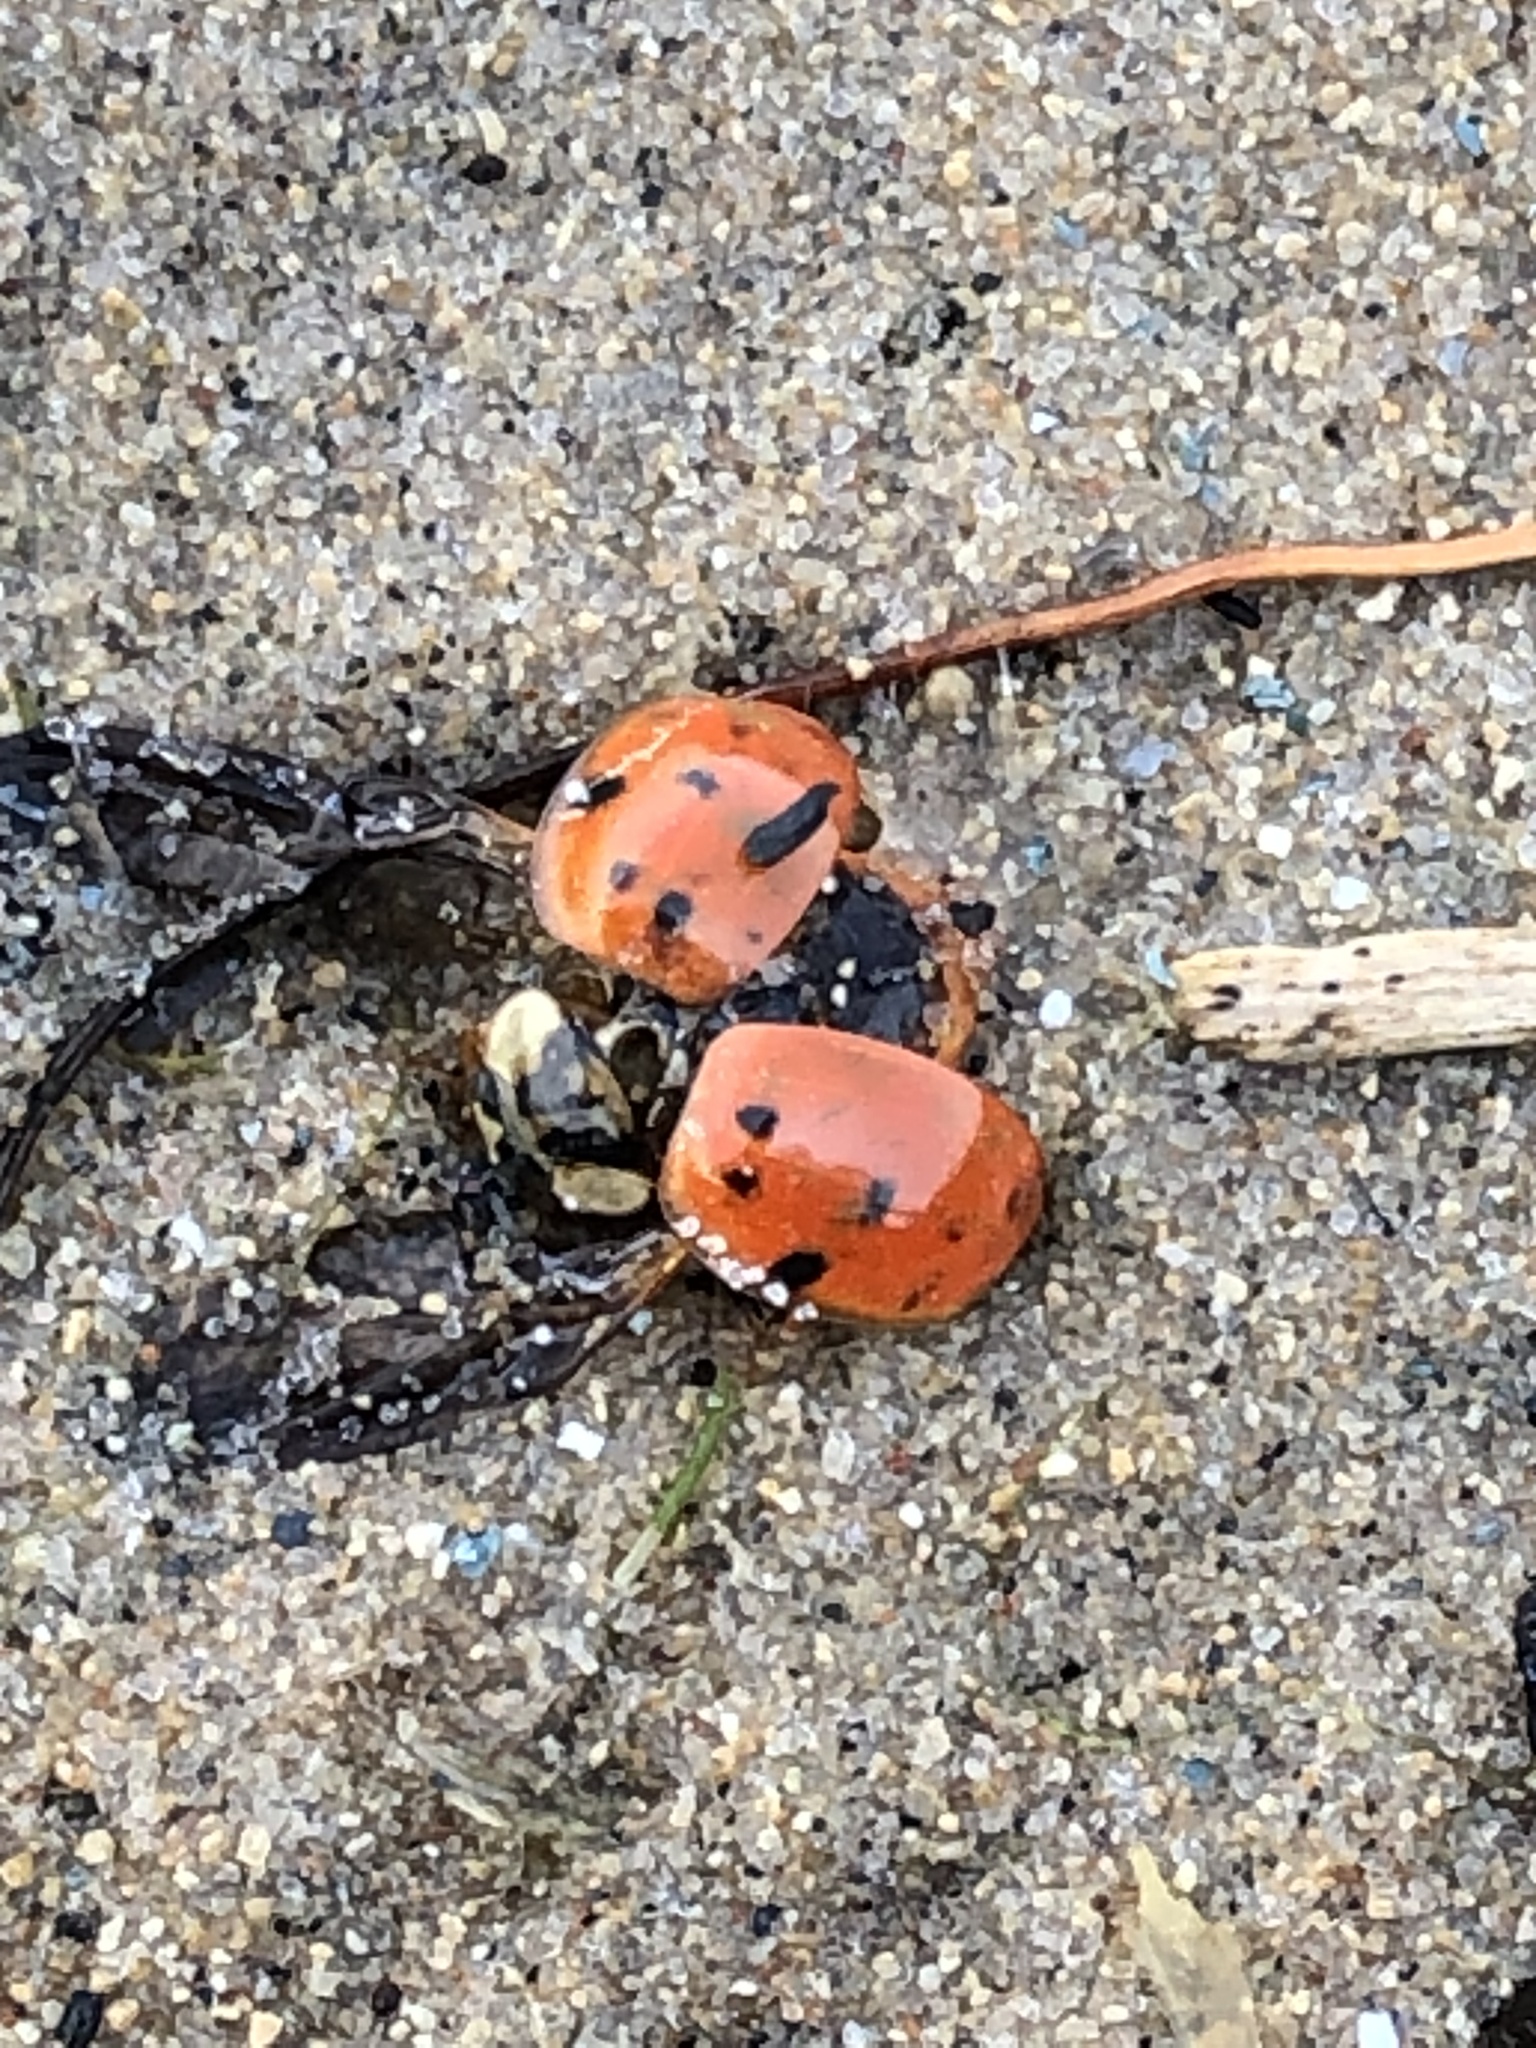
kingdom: Animalia
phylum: Arthropoda
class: Insecta
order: Coleoptera
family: Coccinellidae
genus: Harmonia
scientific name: Harmonia axyridis
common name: Harlequin ladybird
